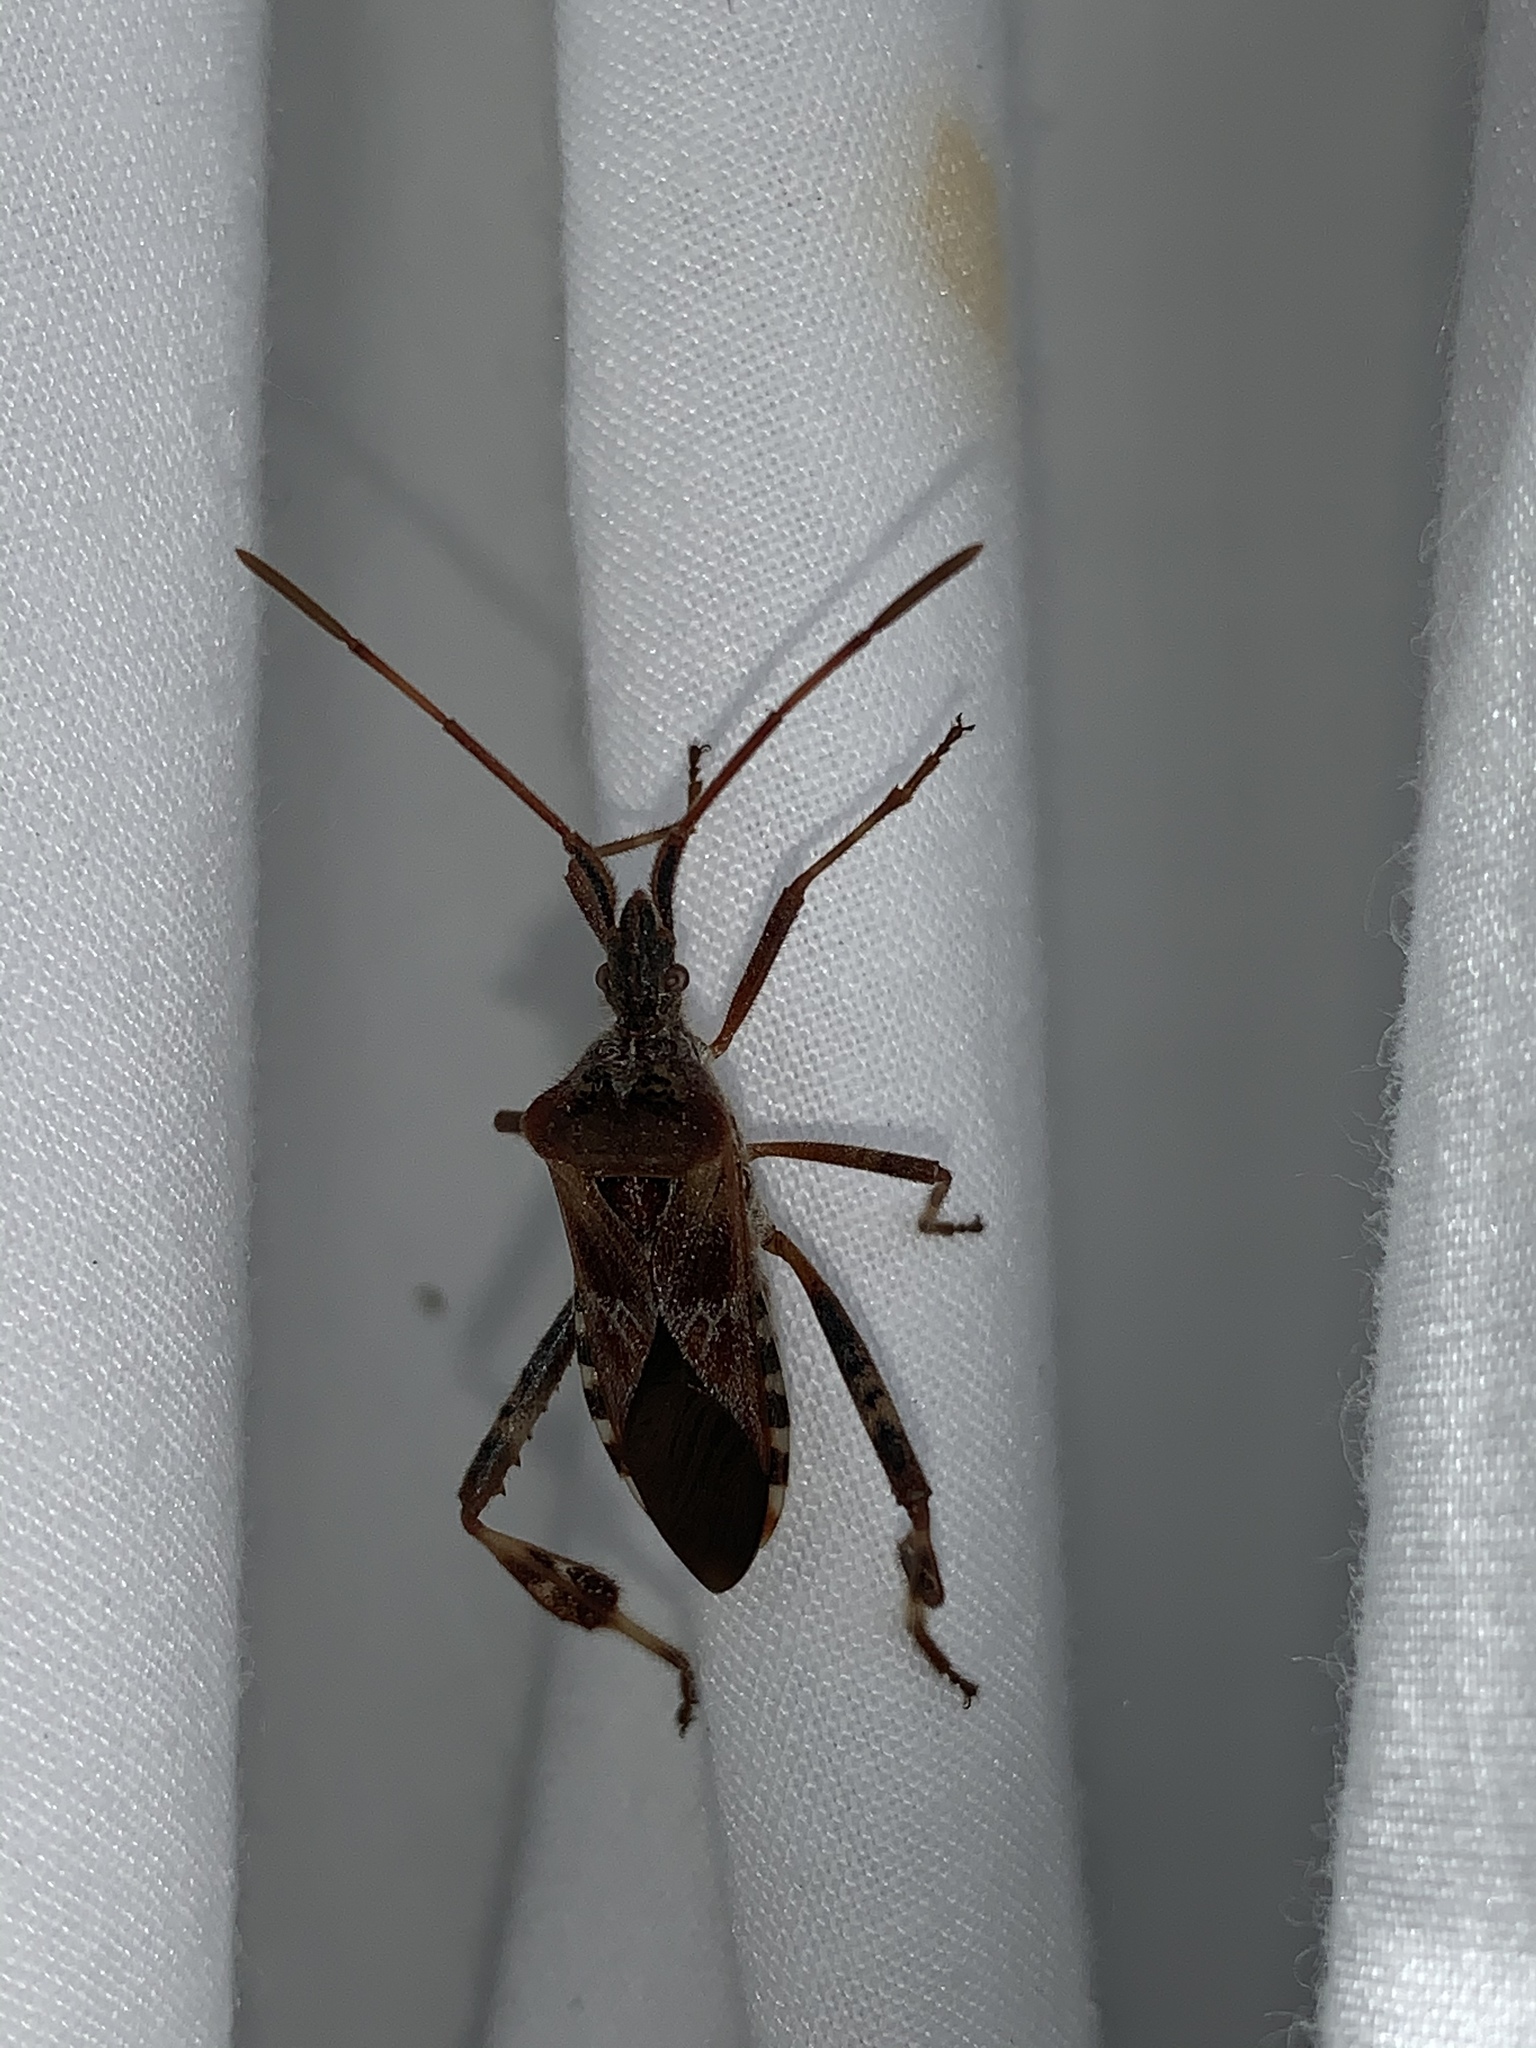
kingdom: Animalia
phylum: Arthropoda
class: Insecta
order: Hemiptera
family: Coreidae
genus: Leptoglossus
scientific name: Leptoglossus occidentalis
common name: Western conifer-seed bug
